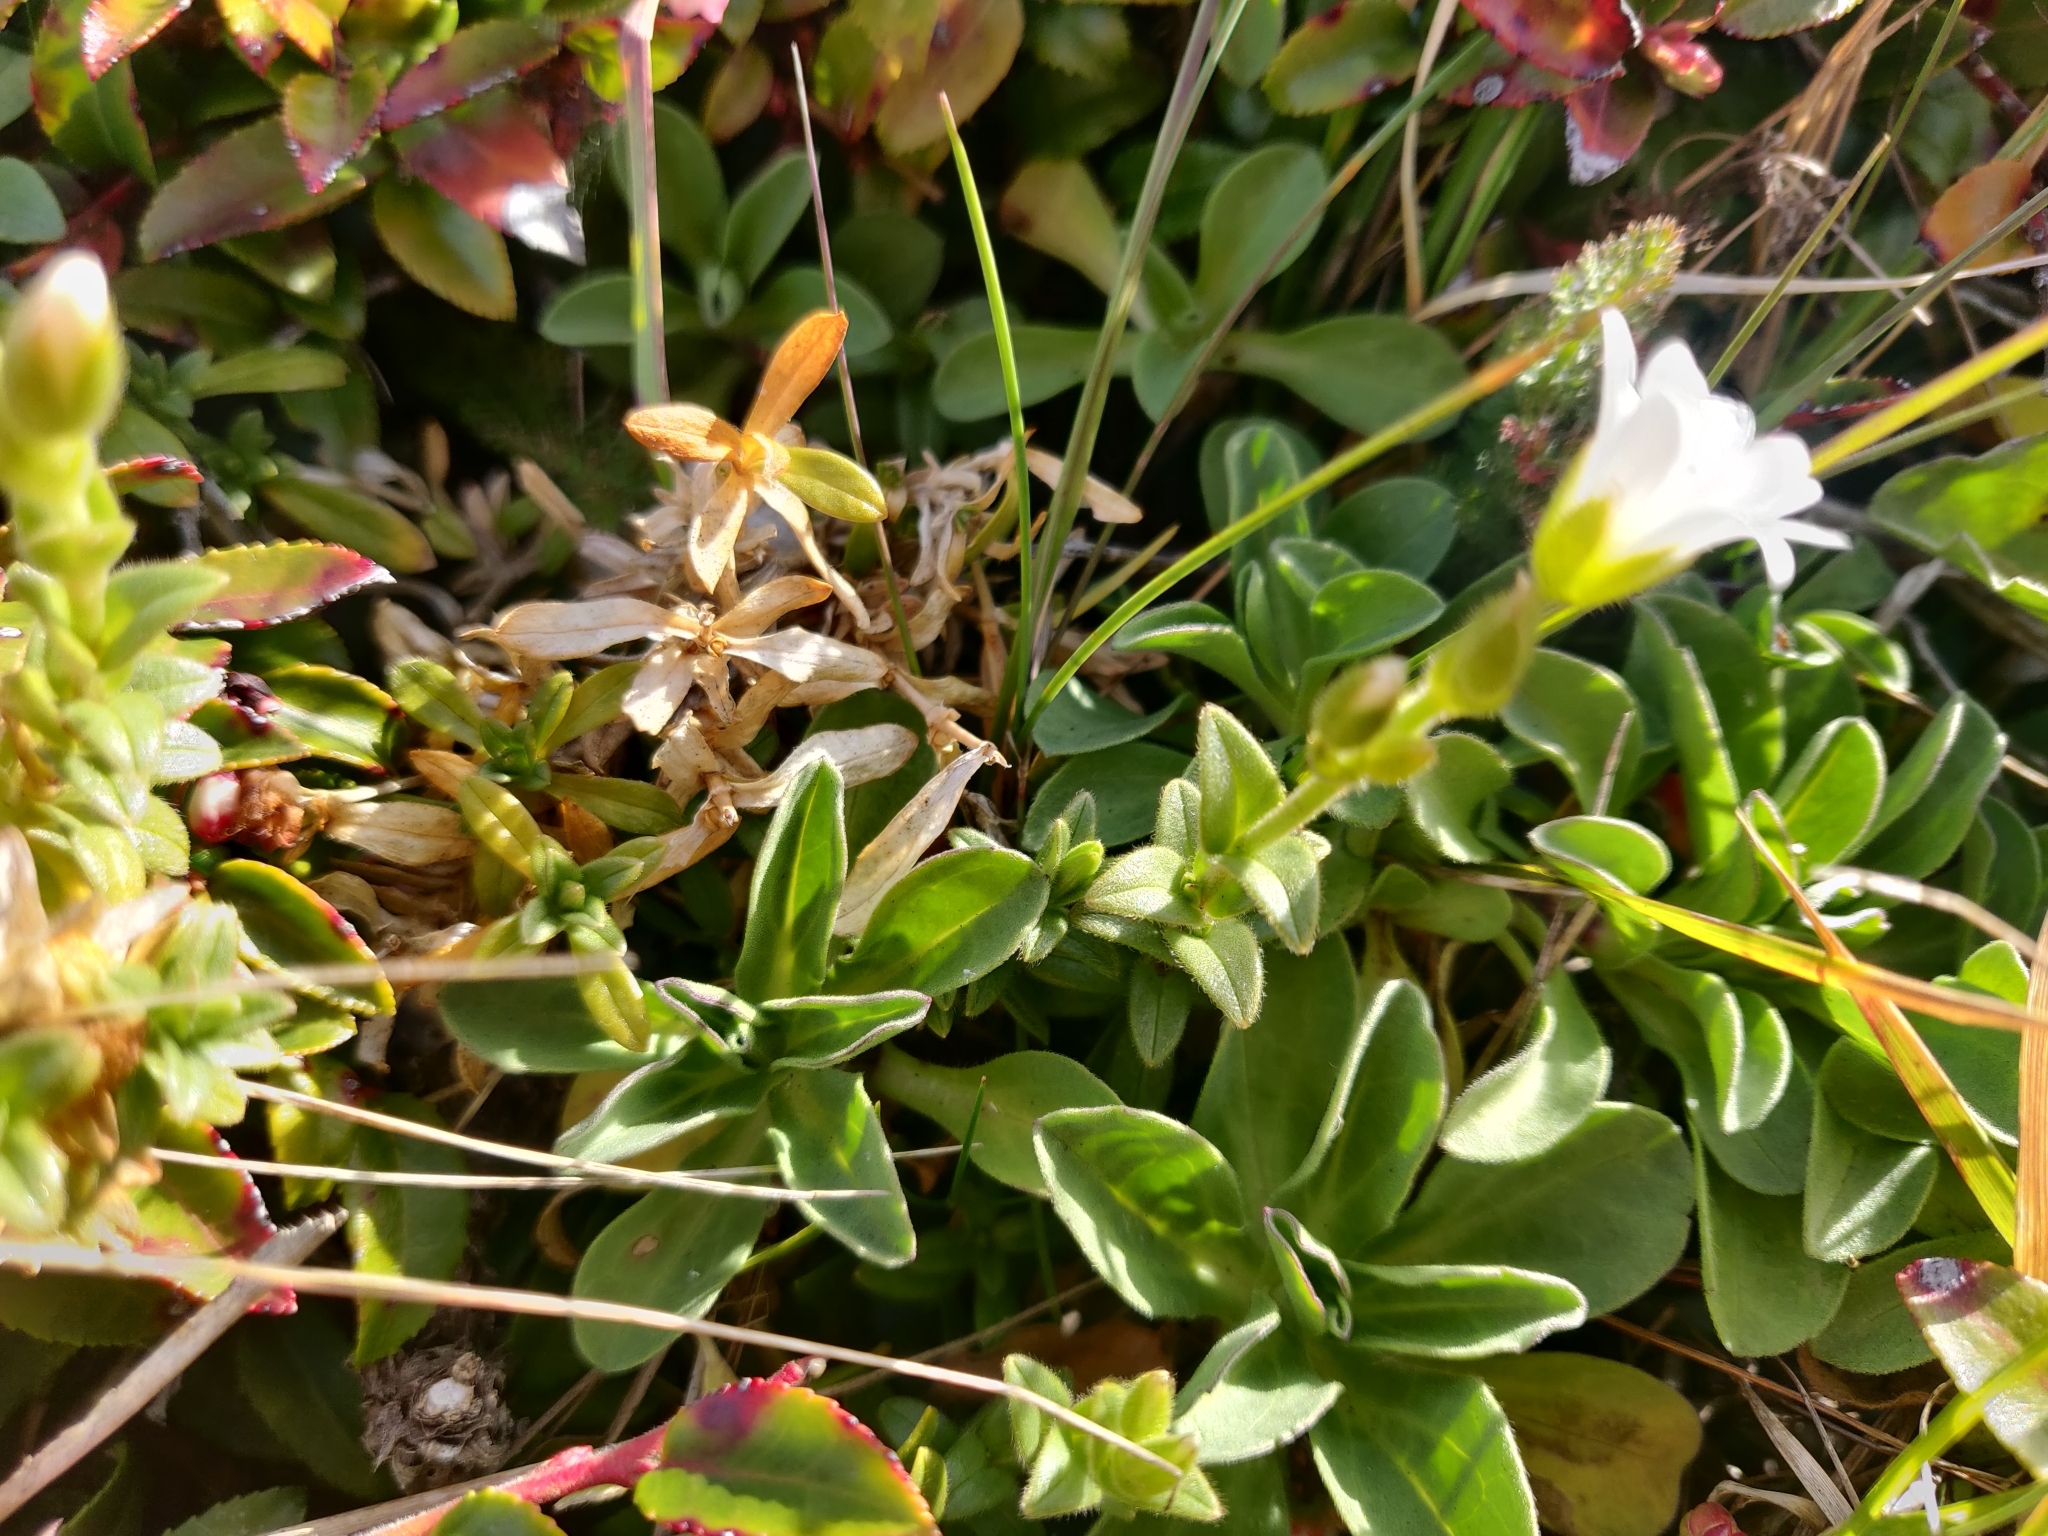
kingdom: Plantae
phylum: Tracheophyta
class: Magnoliopsida
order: Caryophyllales
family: Caryophyllaceae
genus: Cerastium
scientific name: Cerastium arvense
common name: Field mouse-ear
